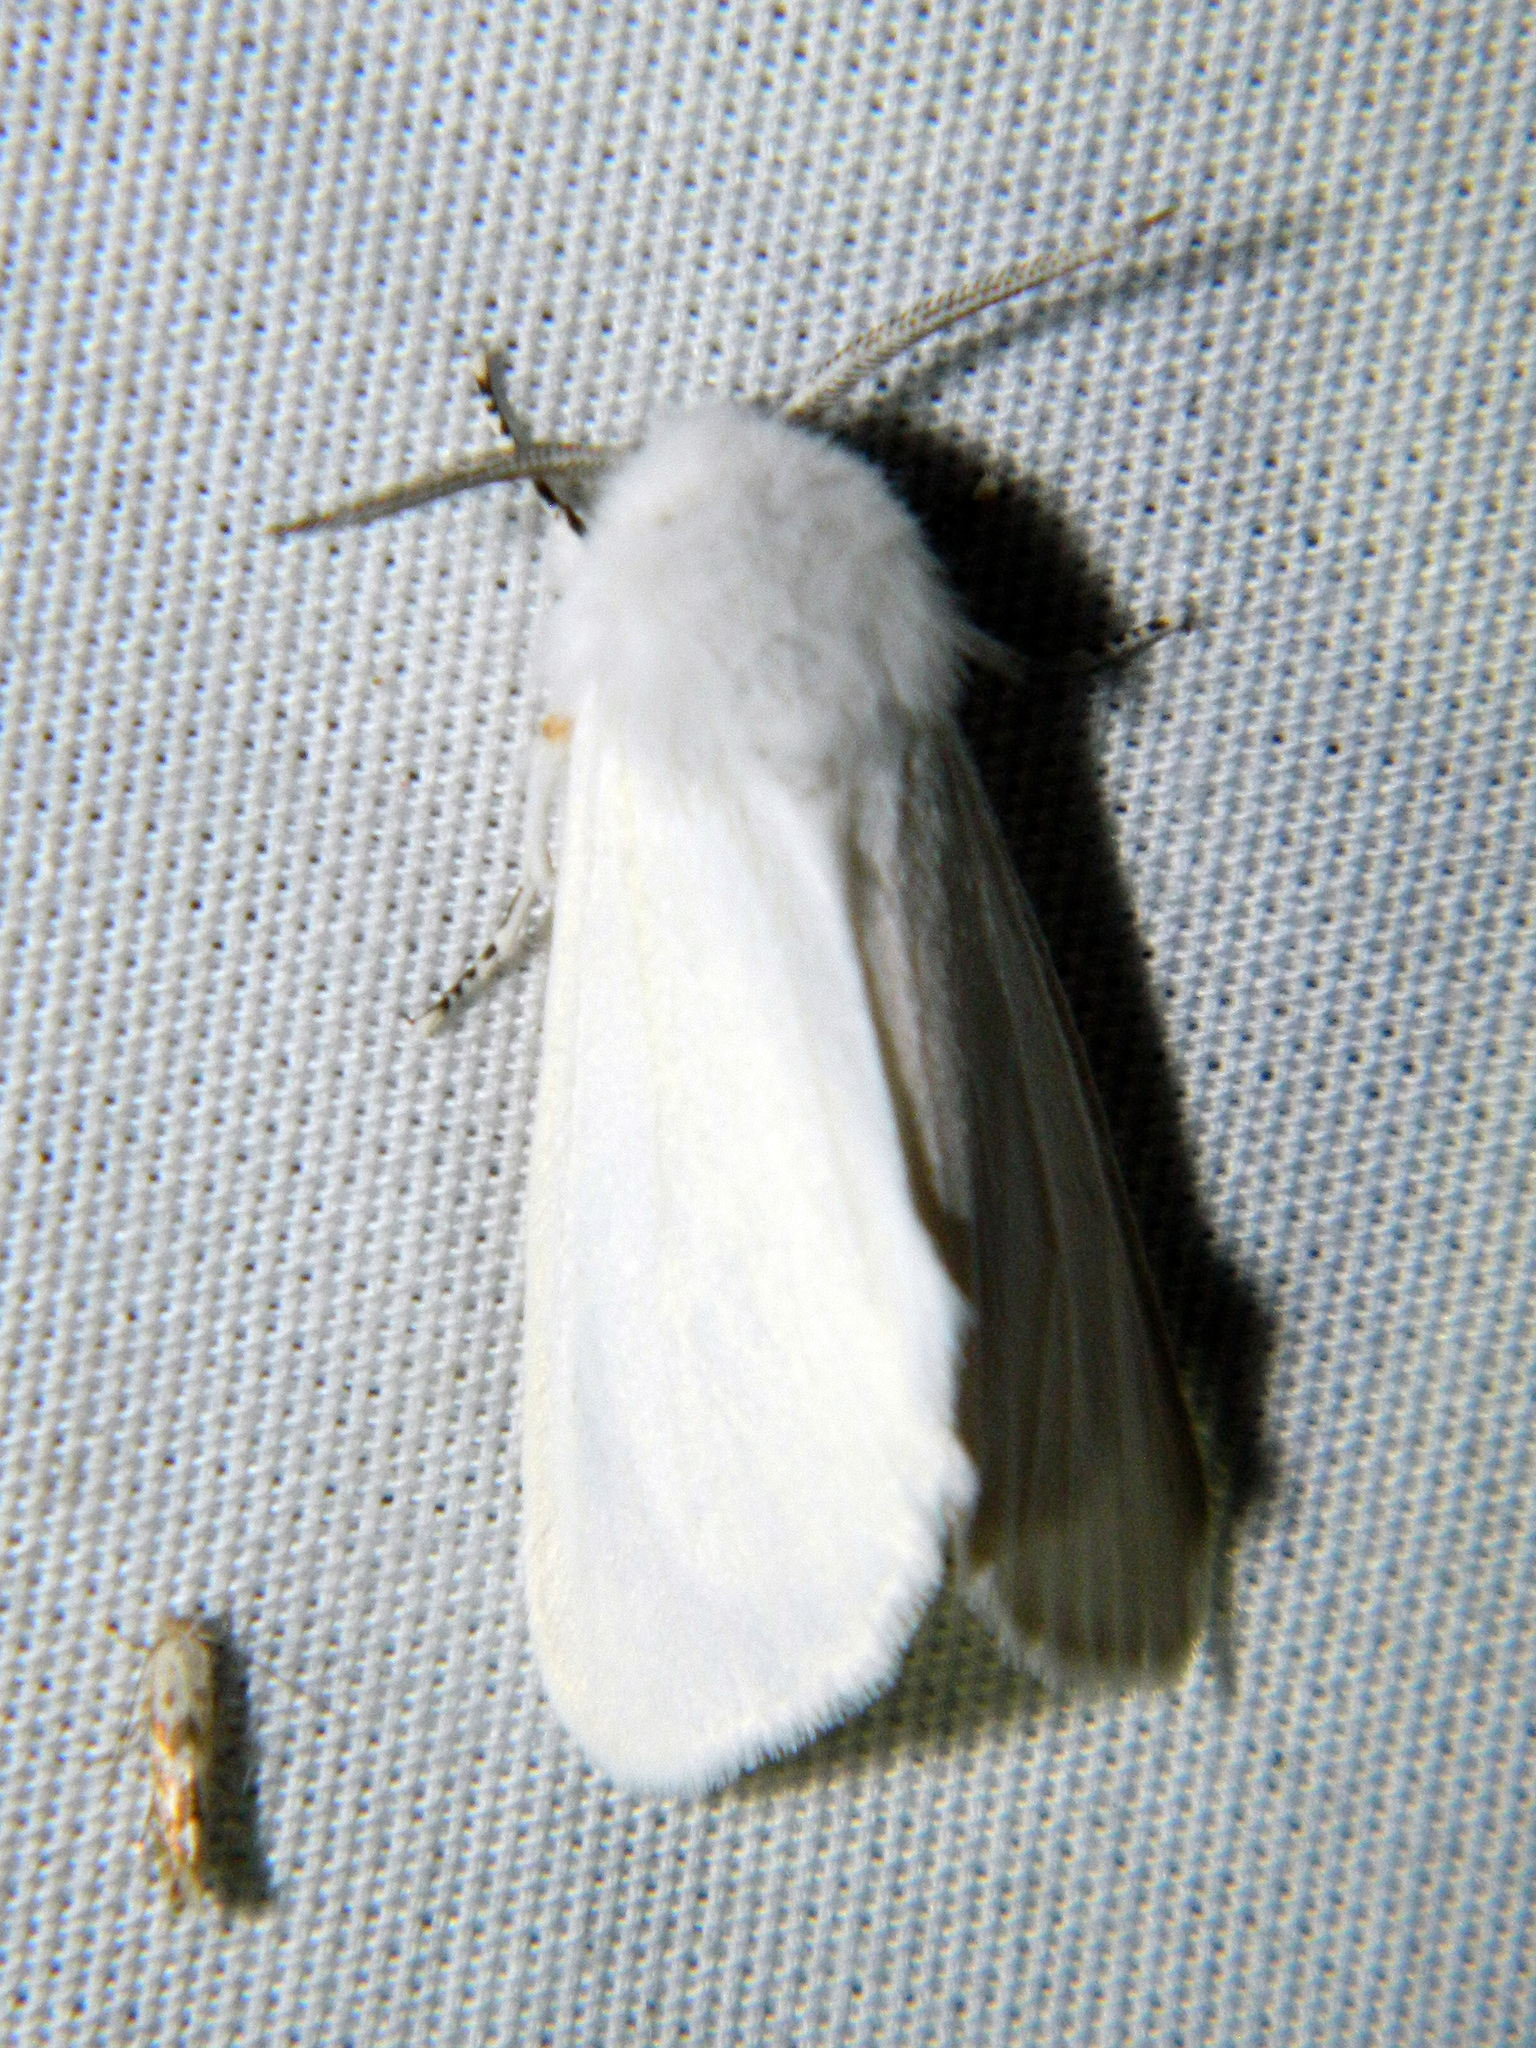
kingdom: Animalia
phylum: Arthropoda
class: Insecta
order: Lepidoptera
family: Erebidae
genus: Hyphantria
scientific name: Hyphantria cunea
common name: American white moth
